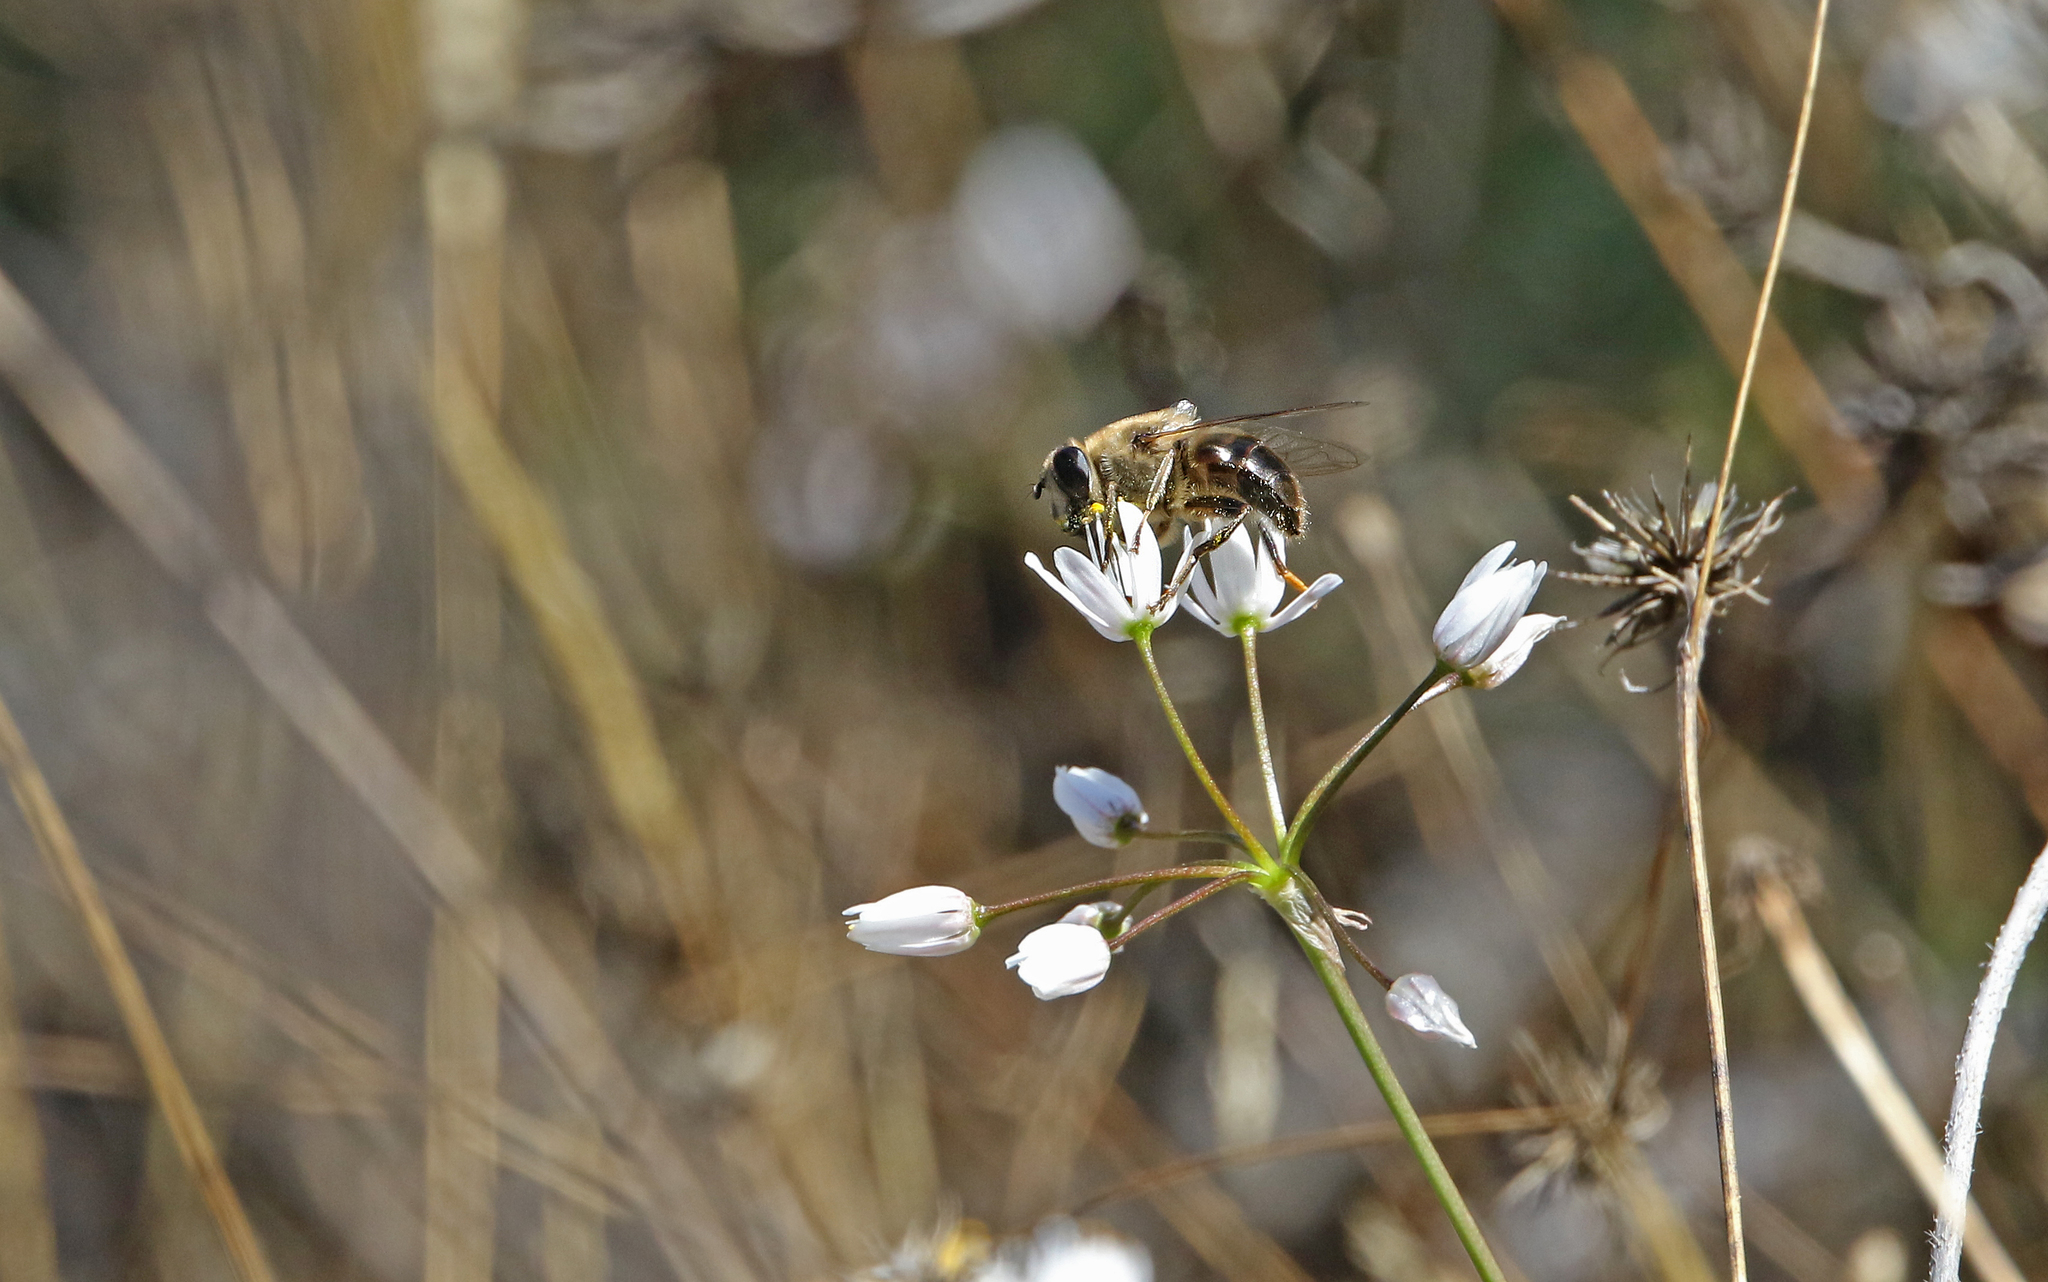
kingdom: Animalia
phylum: Arthropoda
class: Insecta
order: Diptera
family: Syrphidae
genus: Eristalis
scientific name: Eristalis tenax
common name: Drone fly
